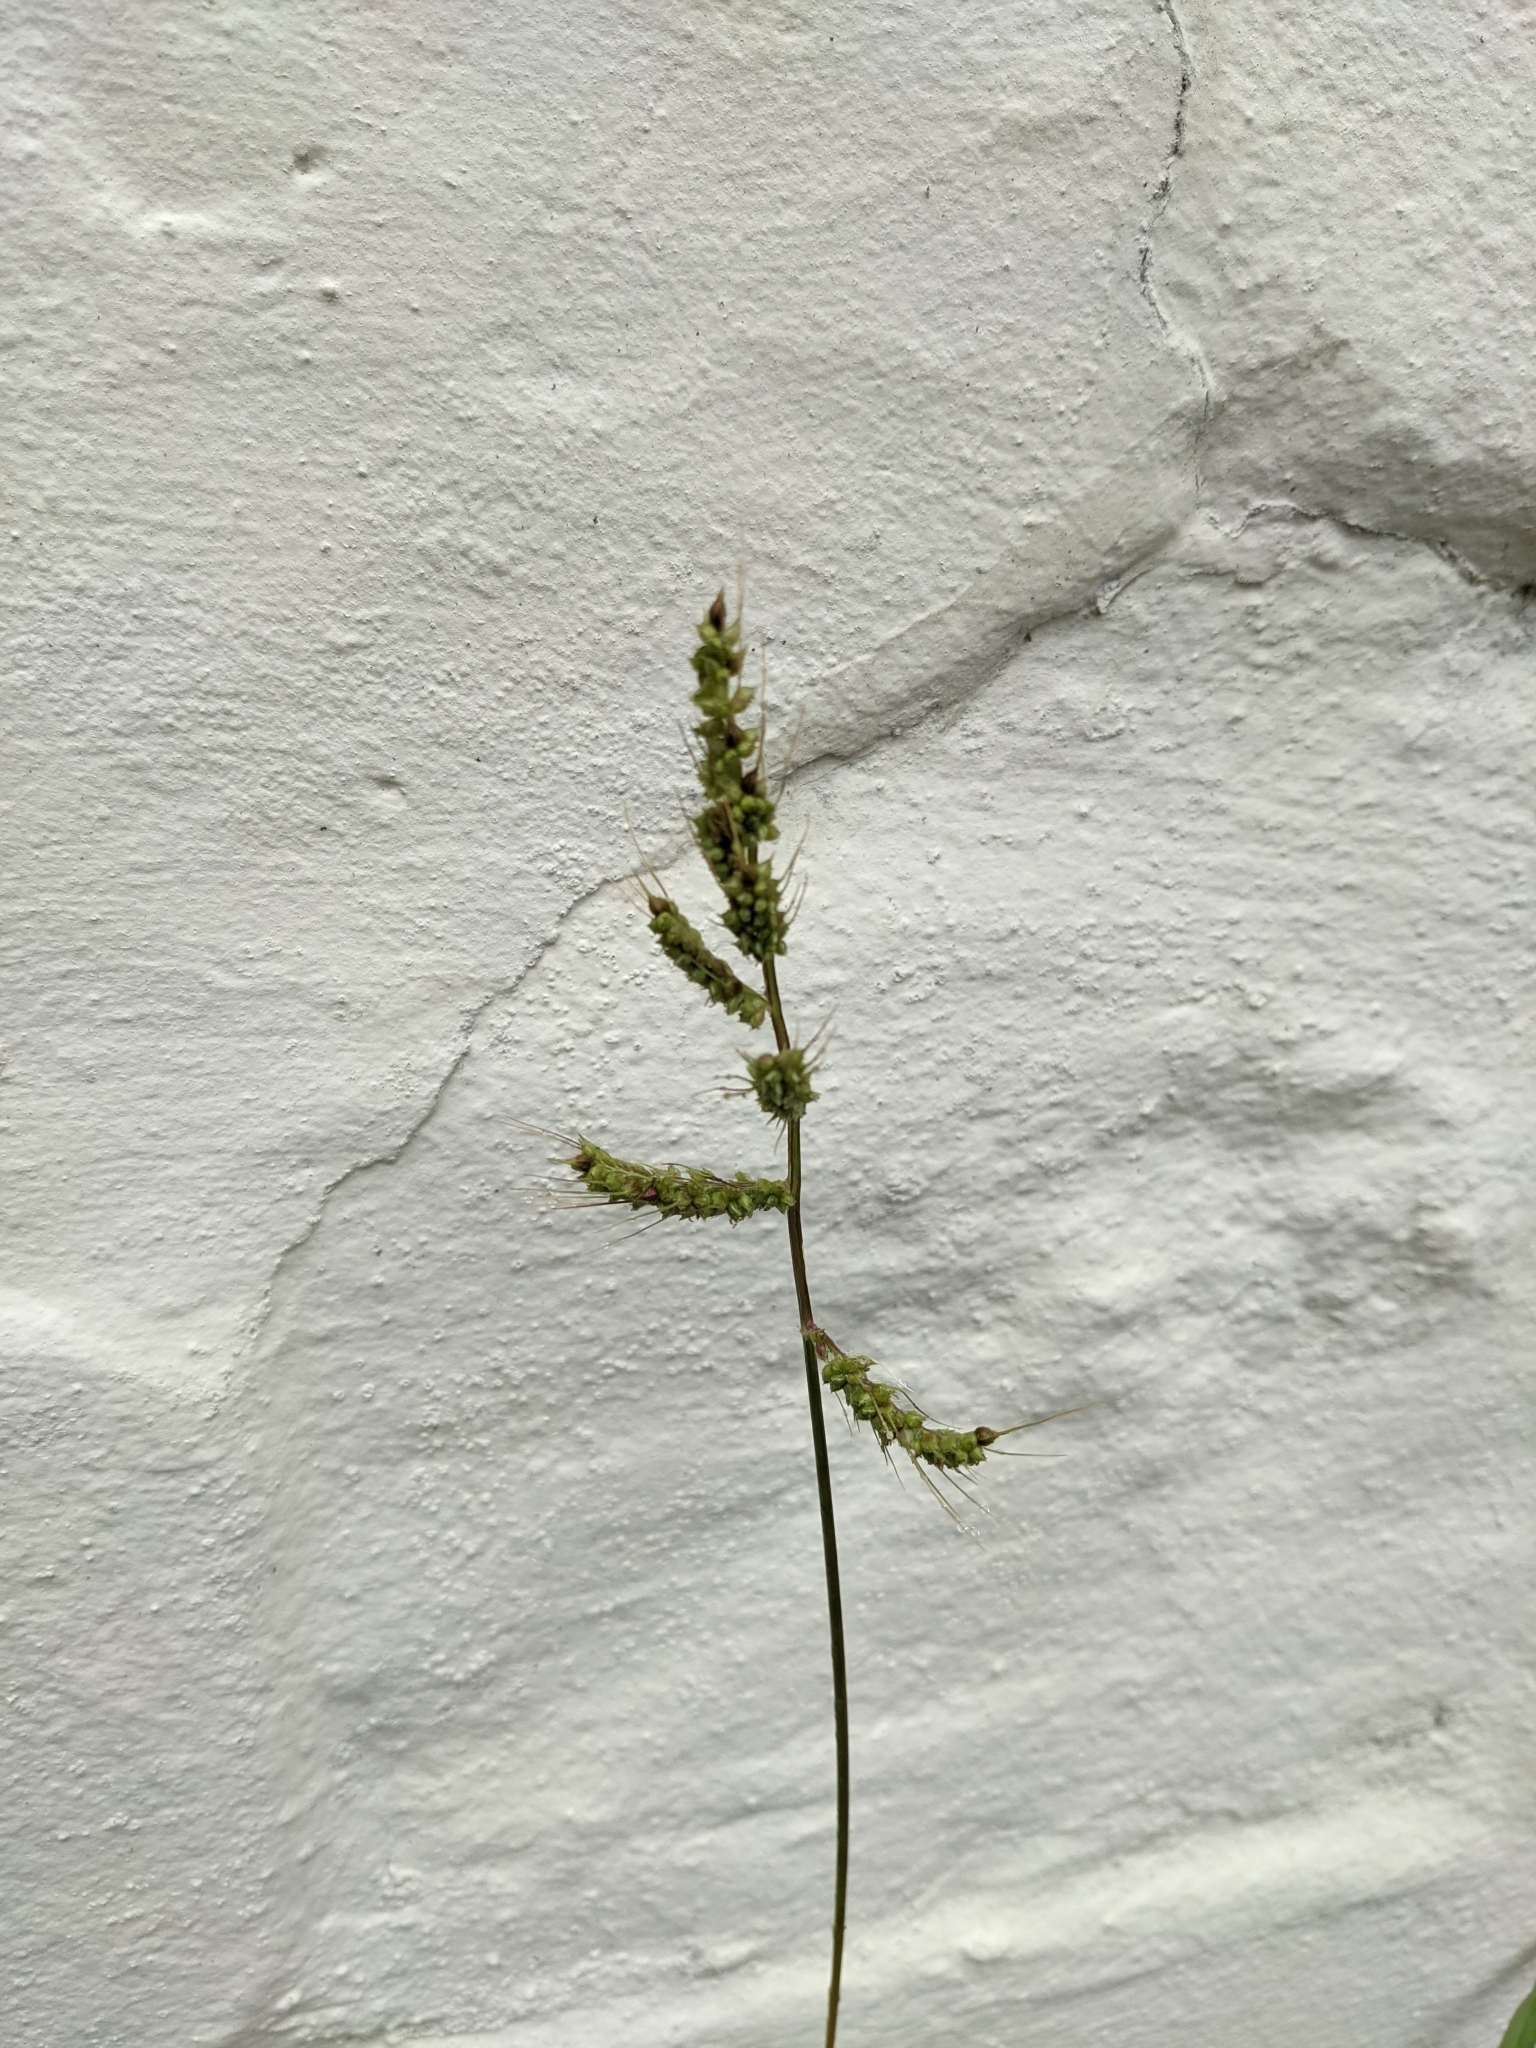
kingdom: Plantae
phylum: Tracheophyta
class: Liliopsida
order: Poales
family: Poaceae
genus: Echinochloa
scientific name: Echinochloa crus-galli
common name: Cockspur
